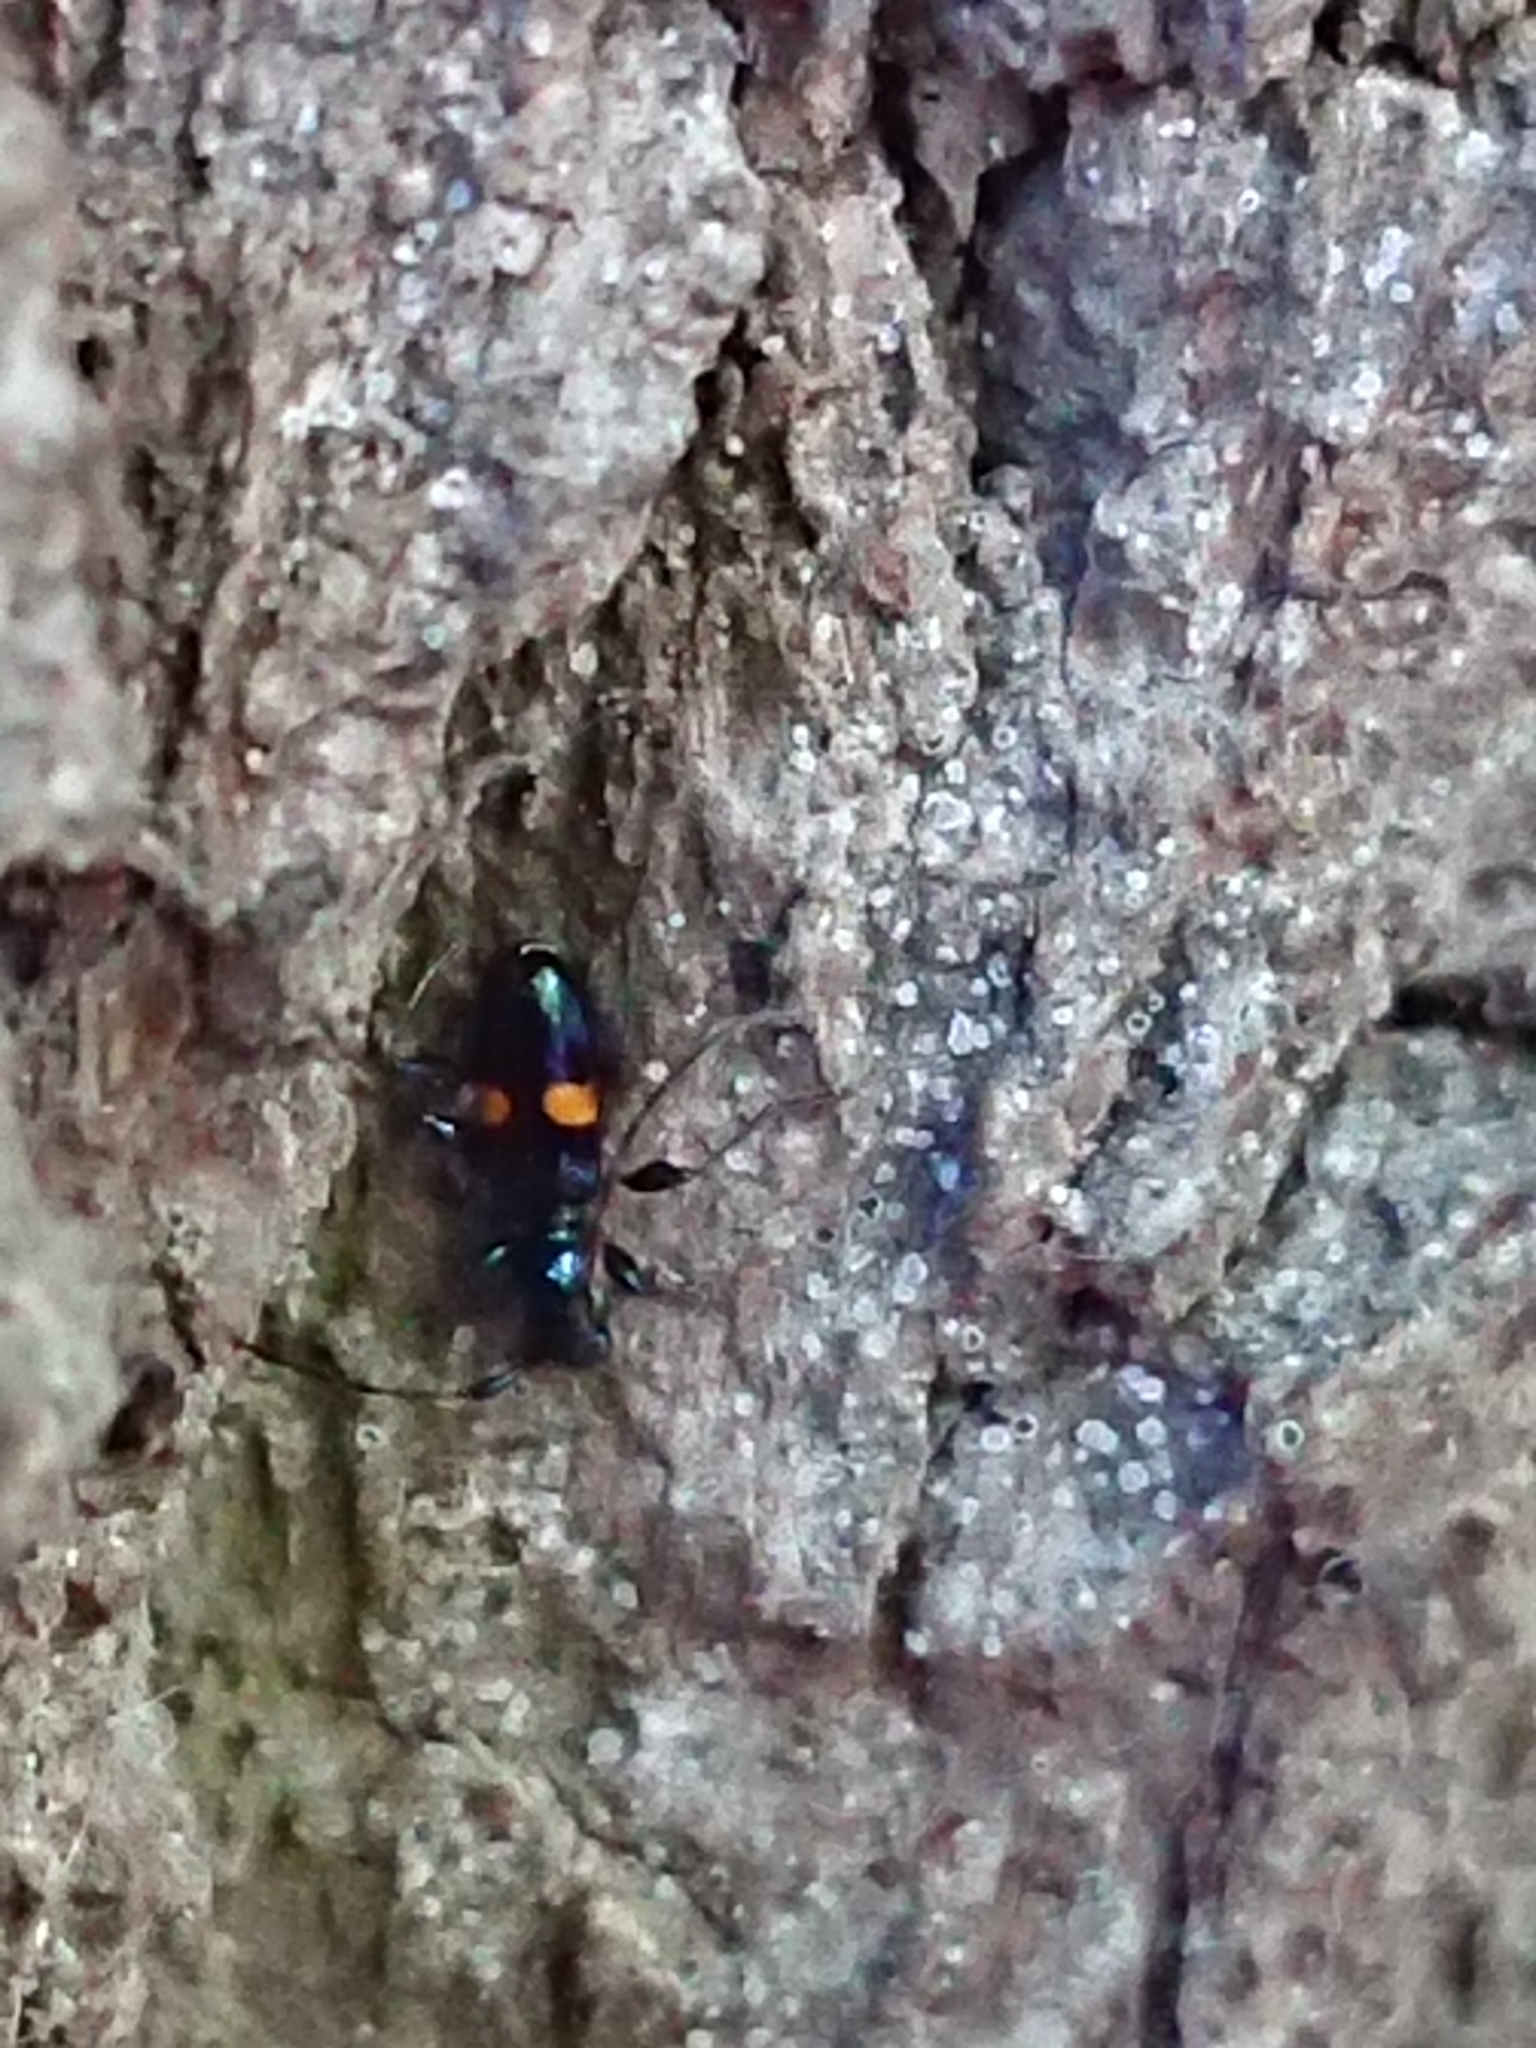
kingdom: Animalia
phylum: Arthropoda
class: Insecta
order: Coleoptera
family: Cerambycidae
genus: Zorion
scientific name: Zorion guttigerum
